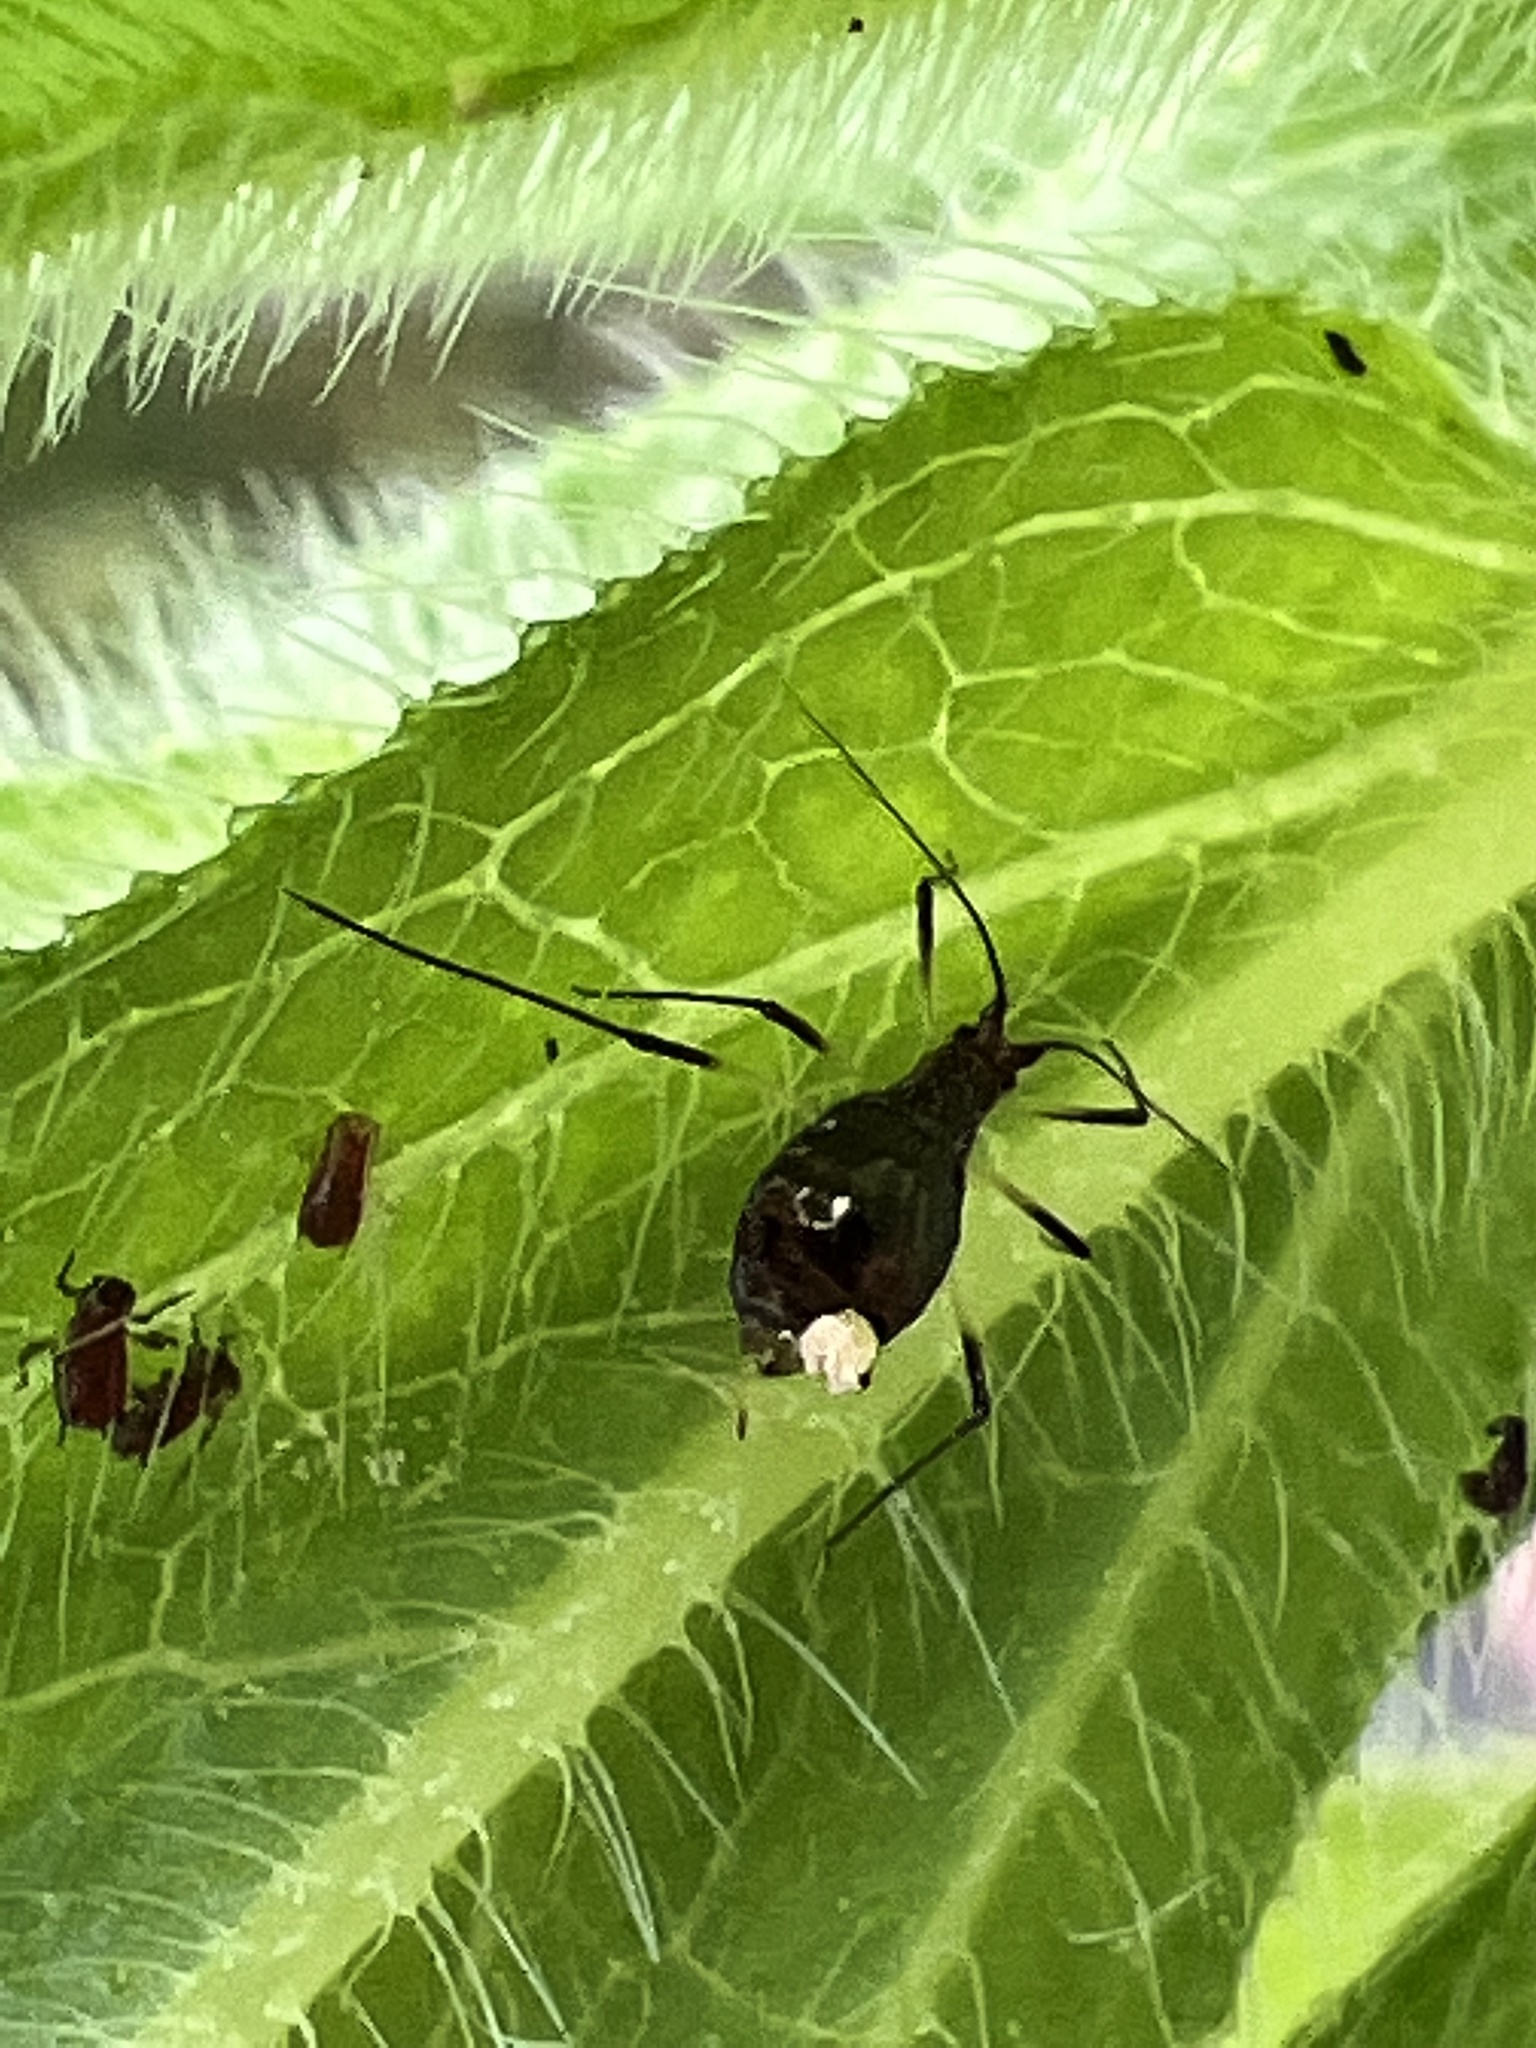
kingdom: Animalia
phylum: Arthropoda
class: Insecta
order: Hemiptera
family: Aphididae
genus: Uroleucon
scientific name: Uroleucon
